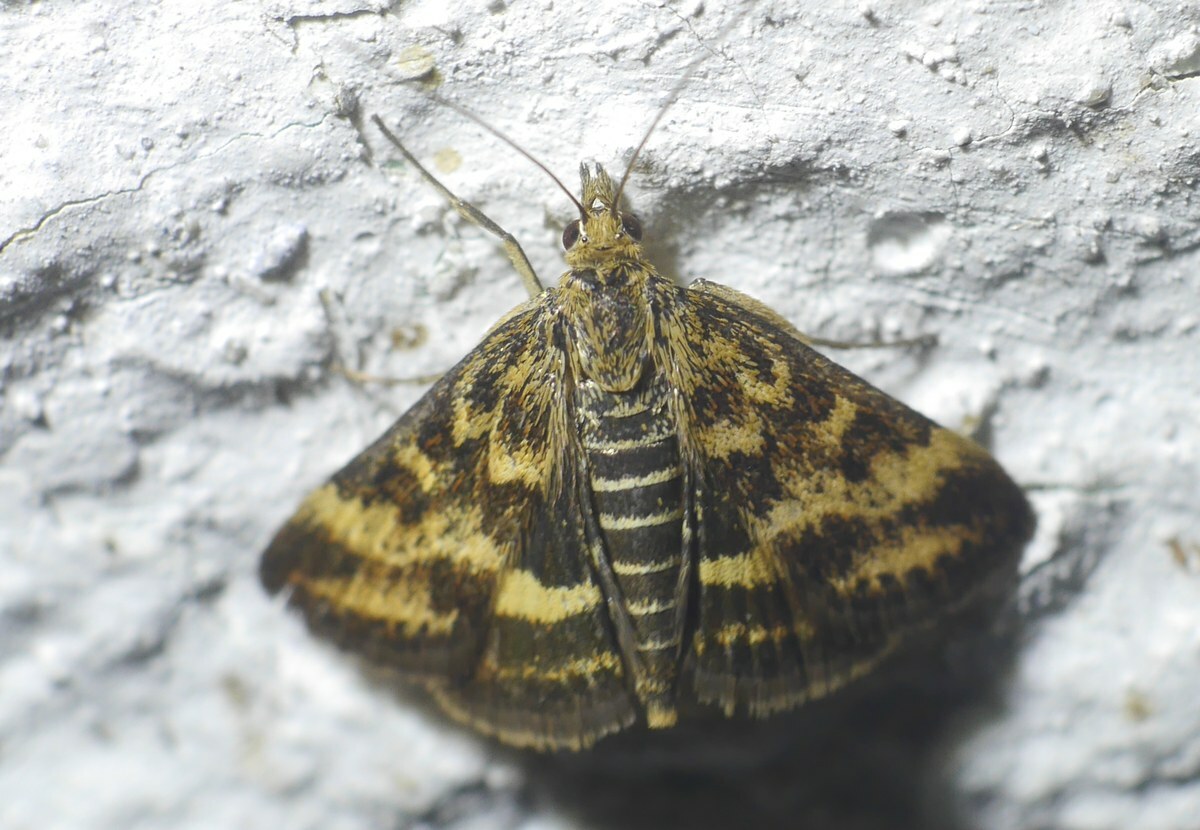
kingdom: Animalia
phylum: Arthropoda
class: Insecta
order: Lepidoptera
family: Crambidae
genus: Pyrausta
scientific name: Pyrausta despicata
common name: Straw-barred pearl
